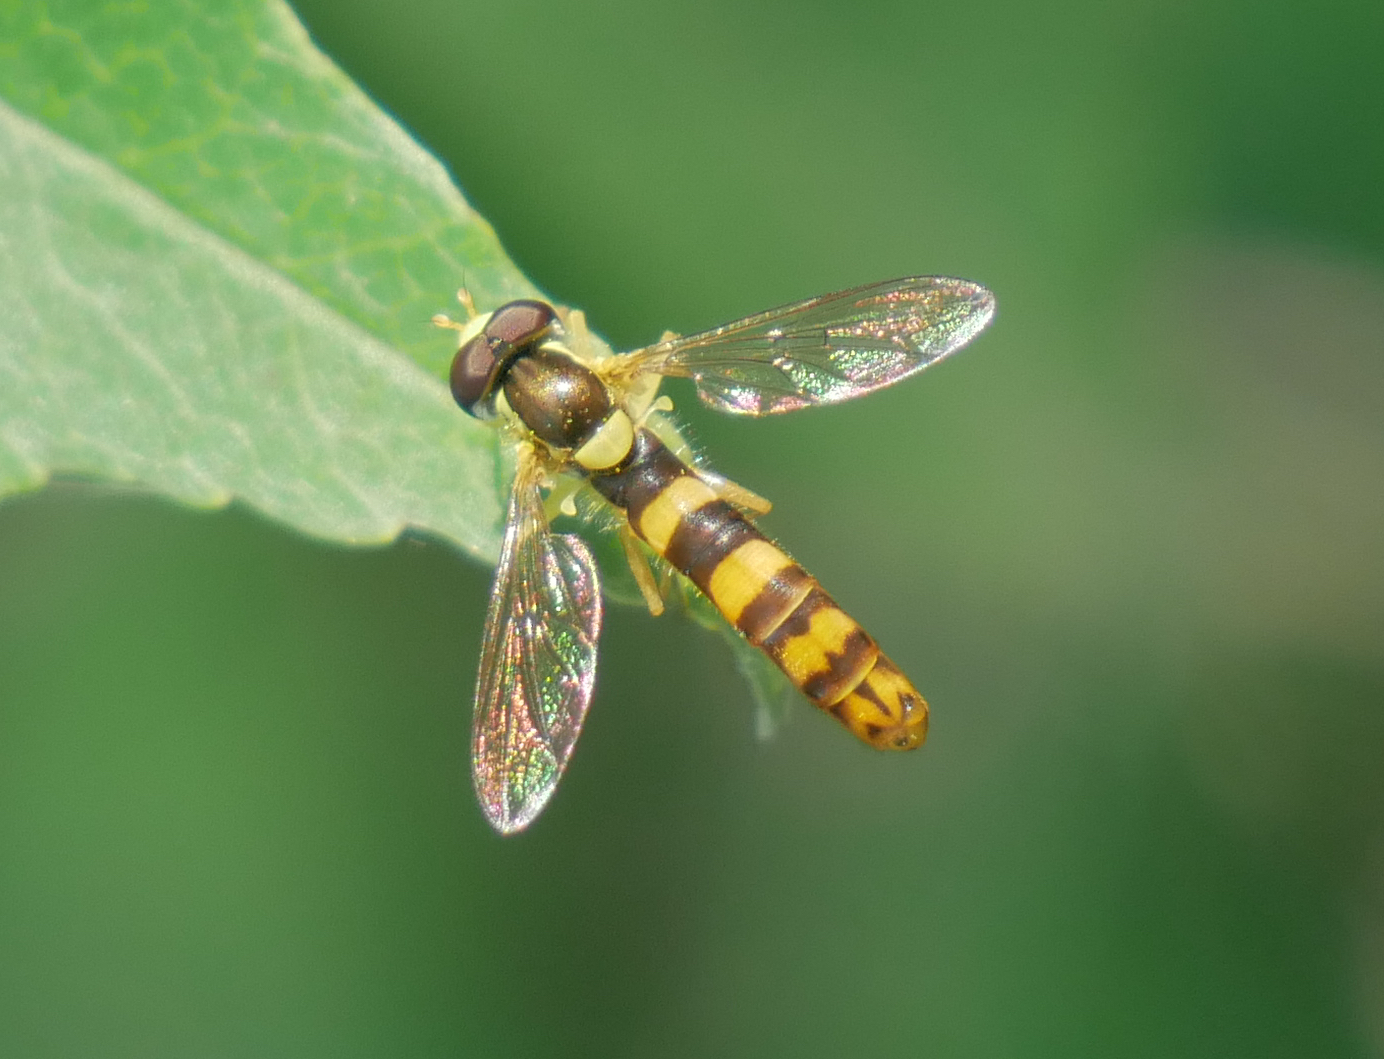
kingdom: Animalia
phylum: Arthropoda
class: Insecta
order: Diptera
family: Syrphidae
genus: Sphaerophoria
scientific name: Sphaerophoria scripta
